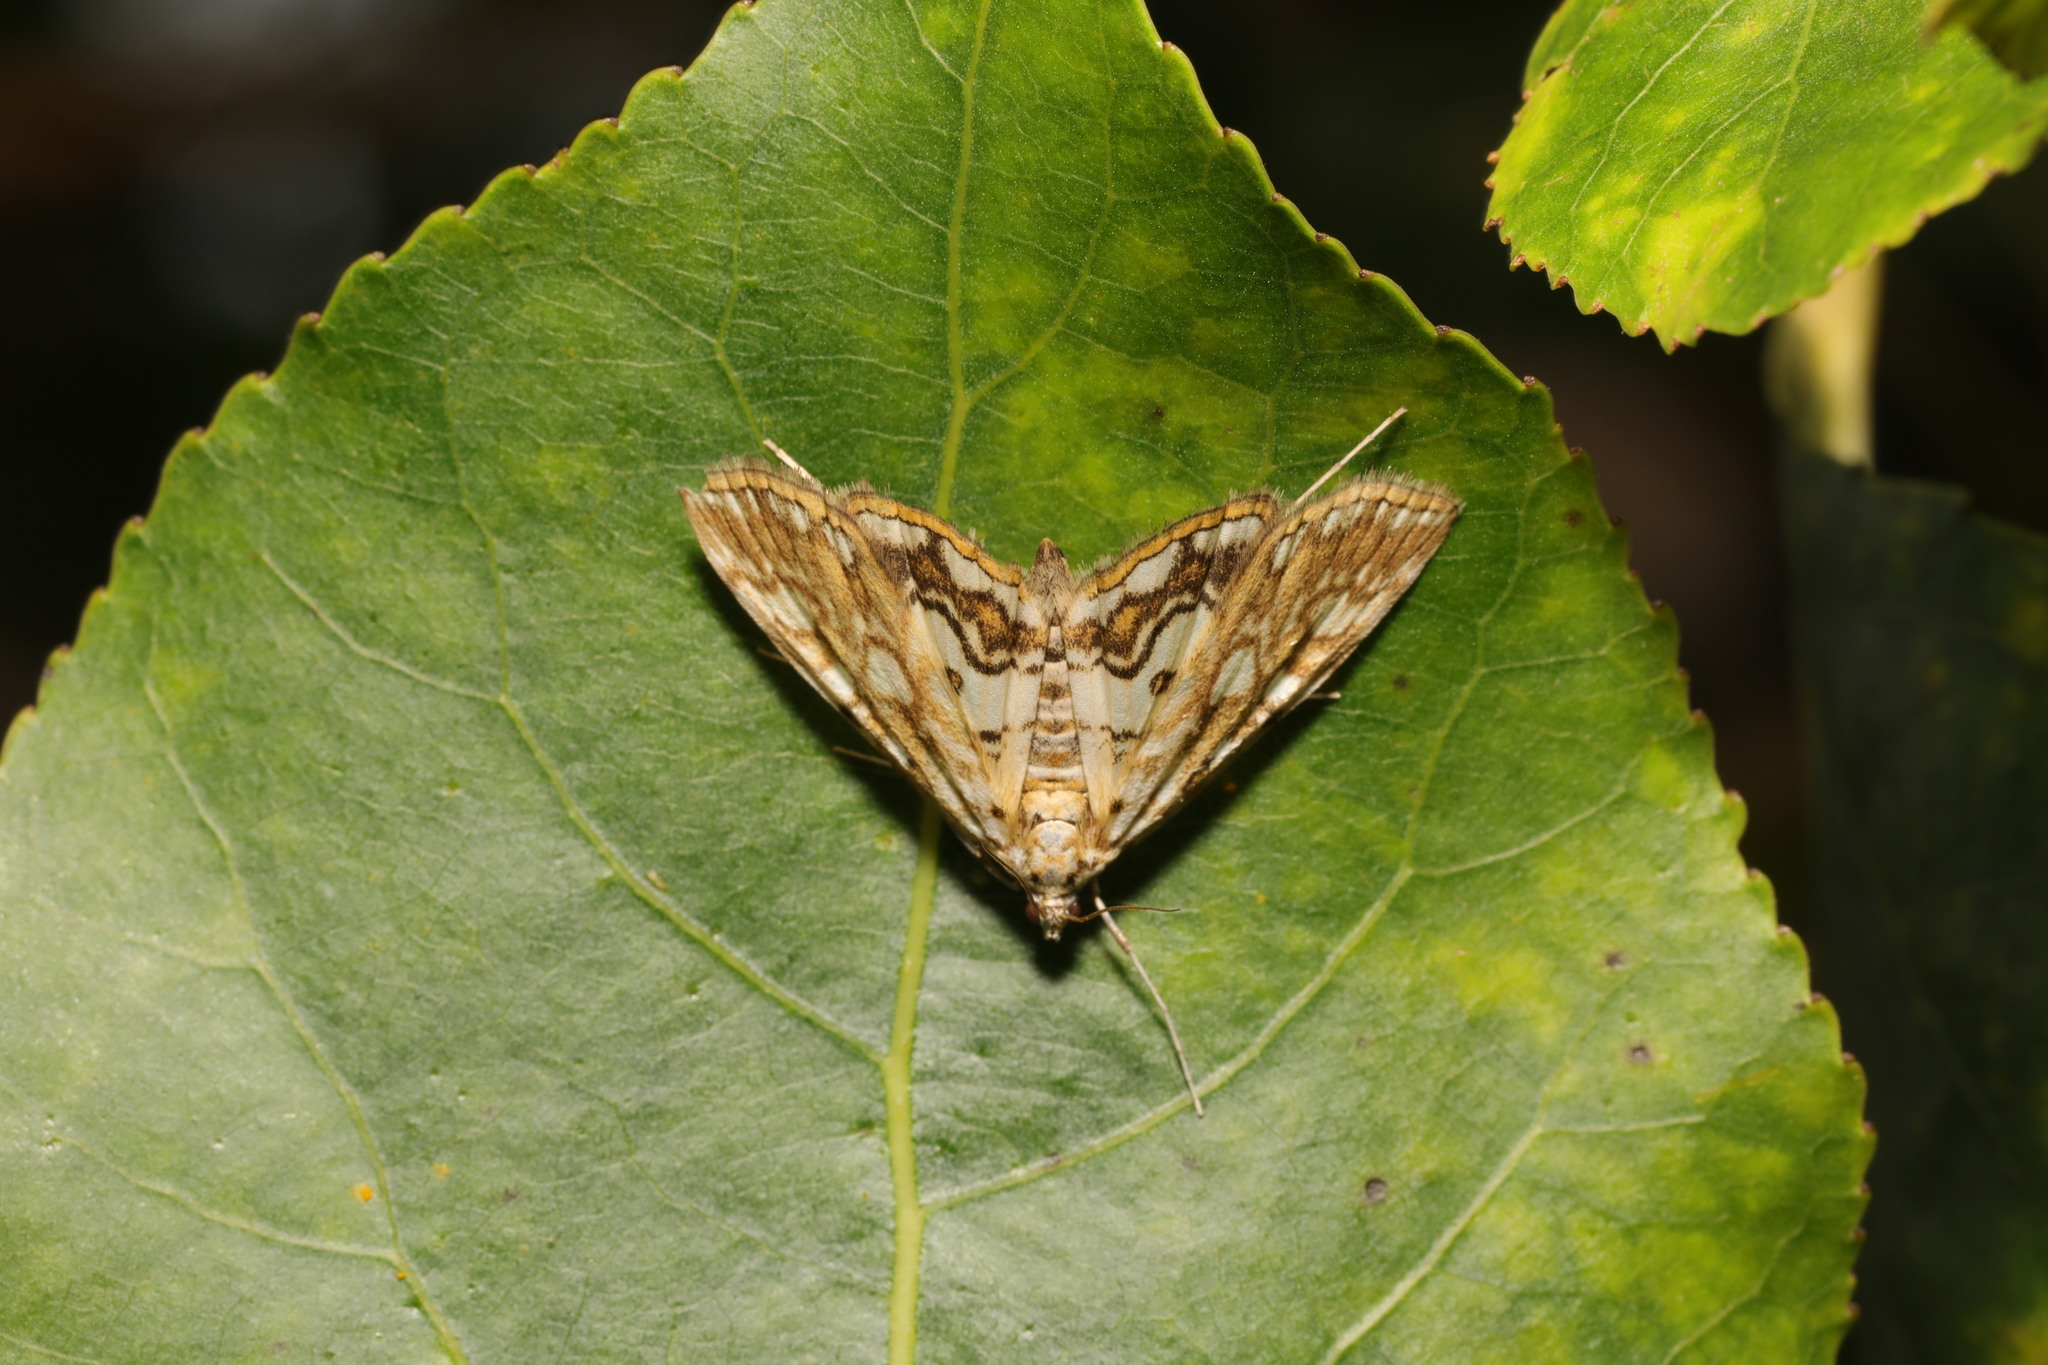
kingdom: Animalia
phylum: Arthropoda
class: Insecta
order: Lepidoptera
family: Crambidae
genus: Elophila
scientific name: Elophila nymphaeata
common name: Brown china-mark
